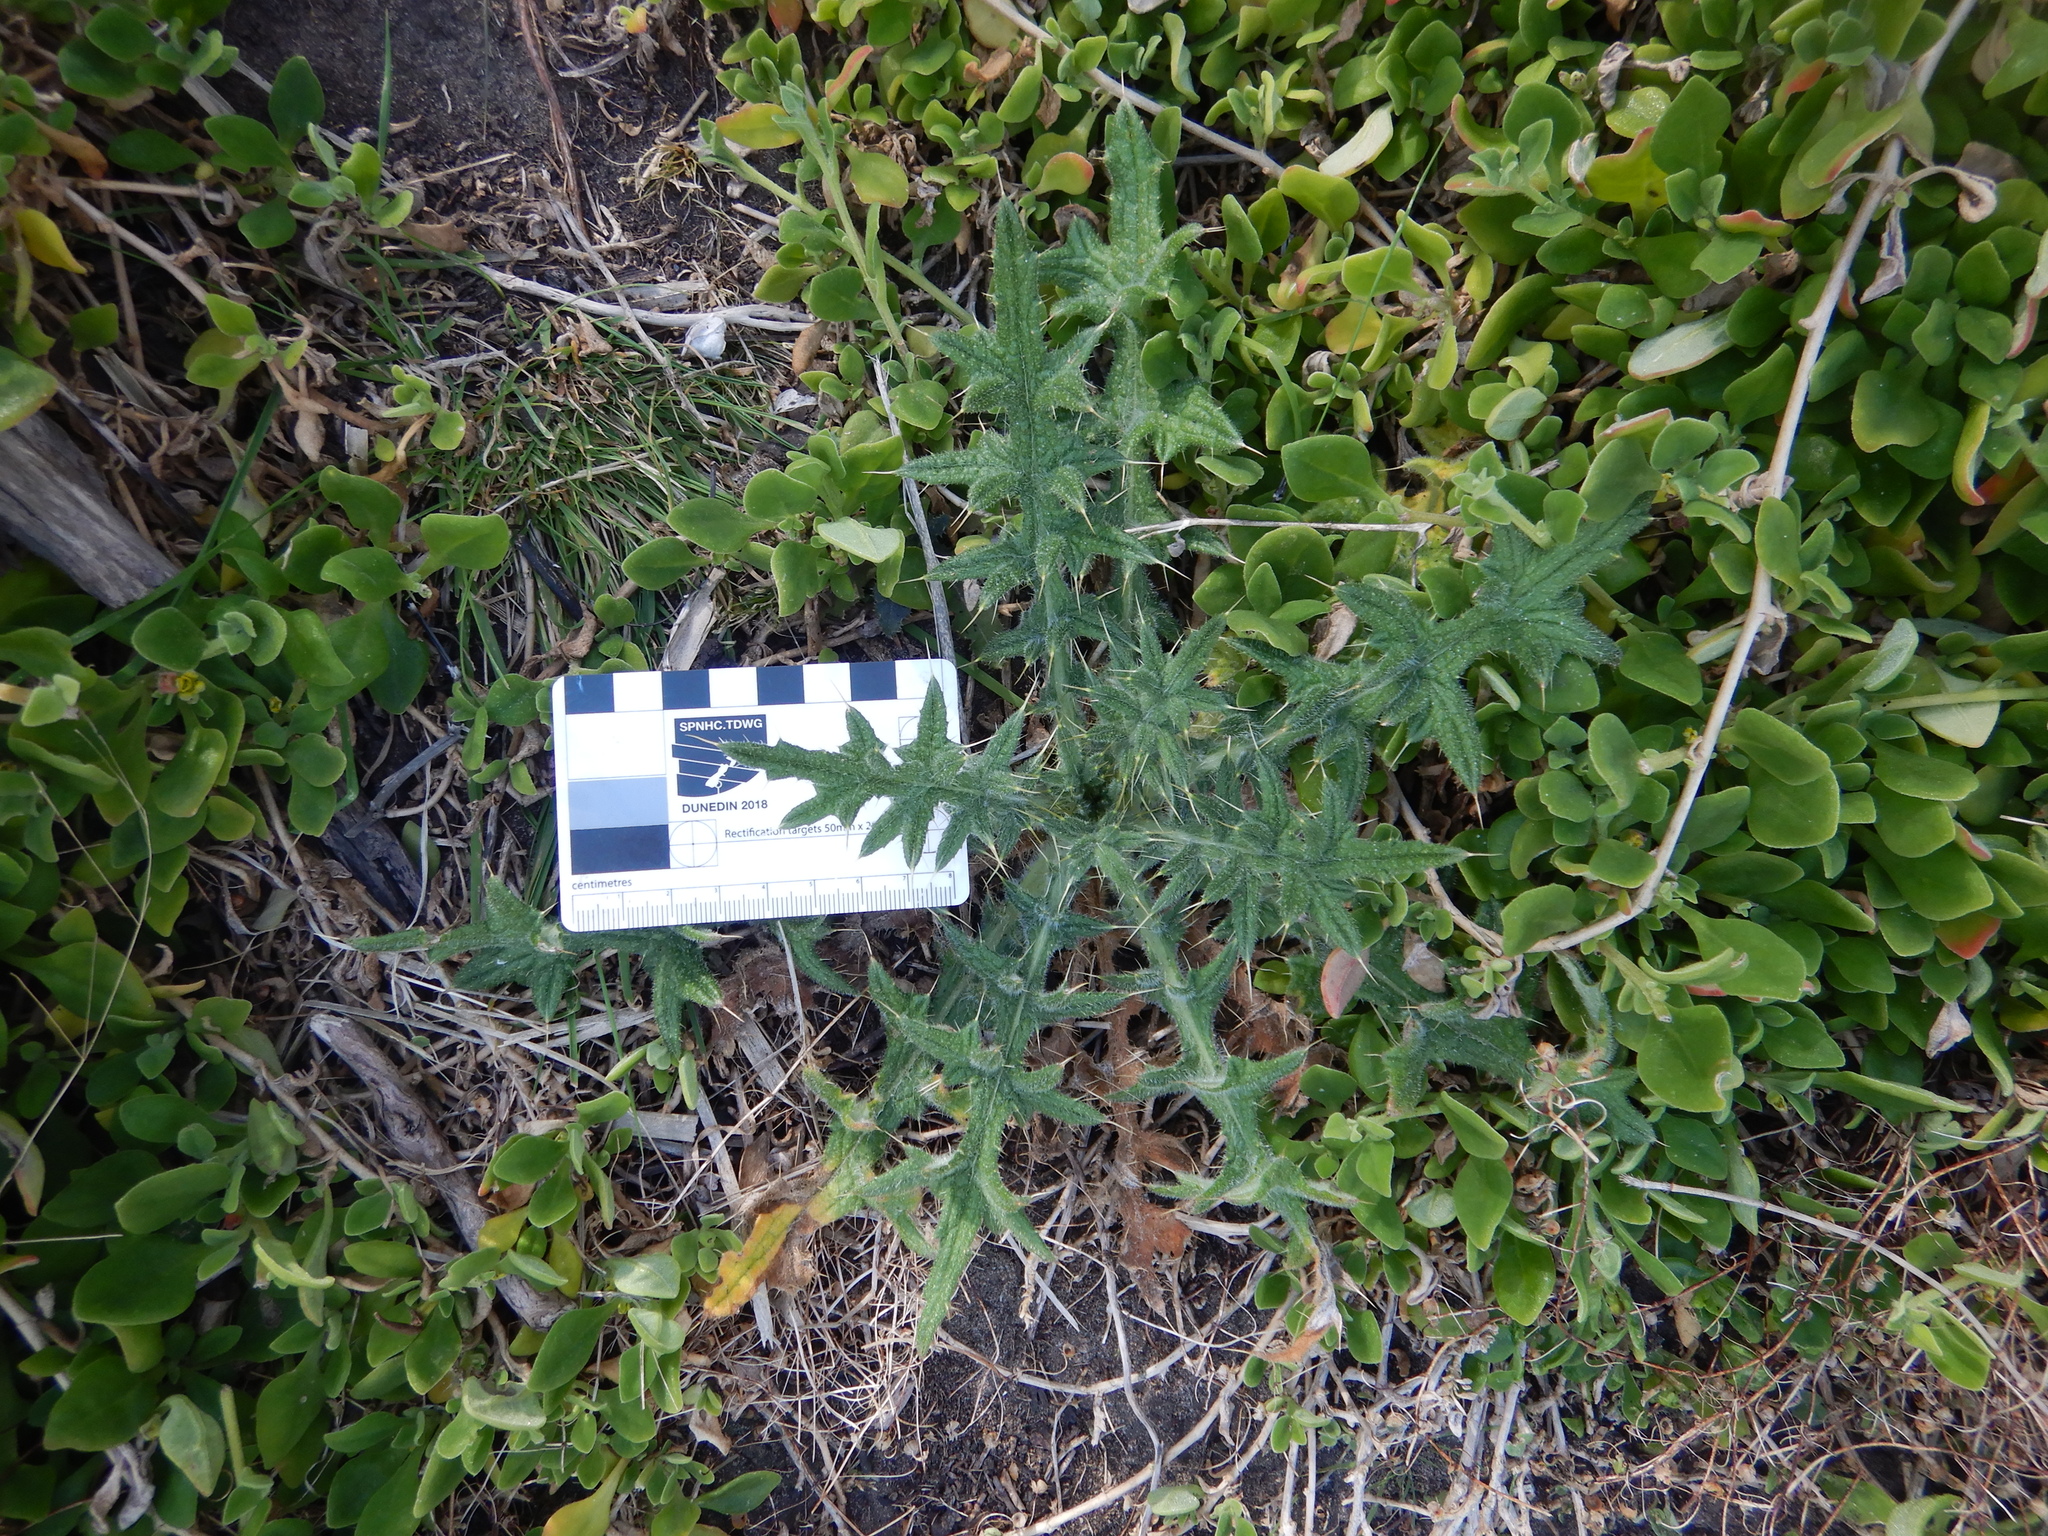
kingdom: Plantae
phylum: Tracheophyta
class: Magnoliopsida
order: Asterales
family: Asteraceae
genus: Cirsium
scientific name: Cirsium vulgare
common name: Bull thistle
